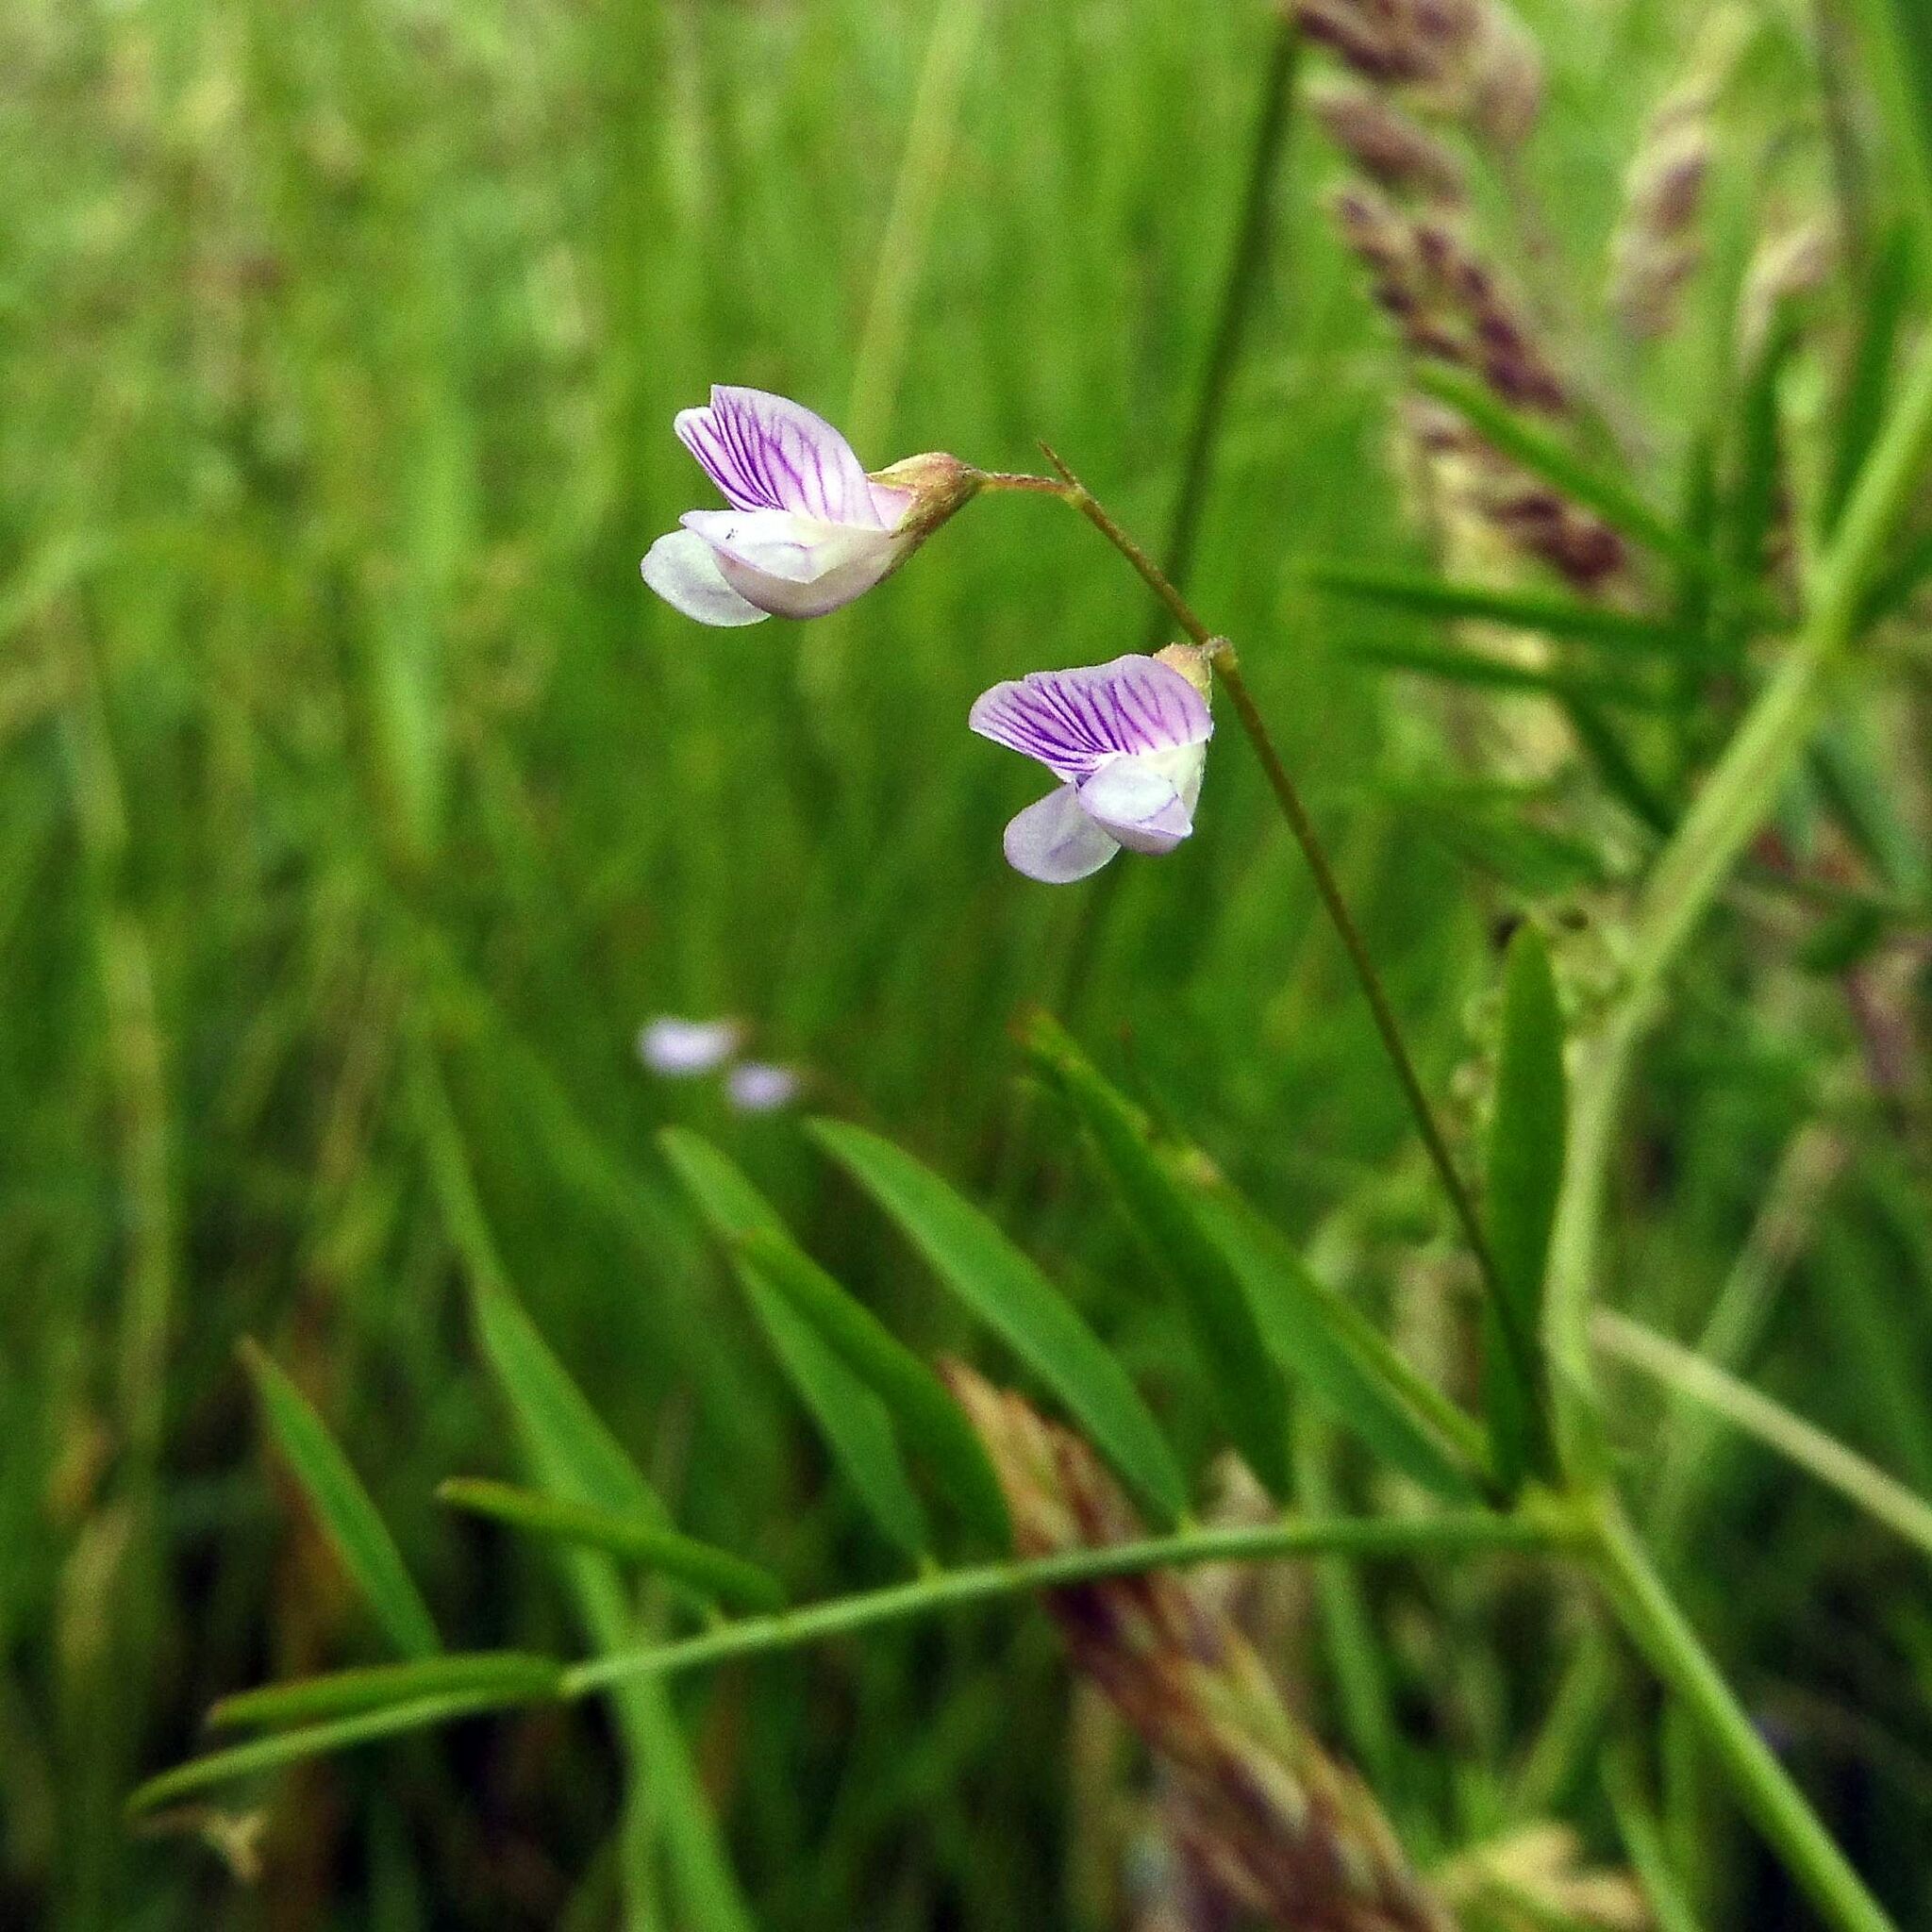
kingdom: Plantae
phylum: Tracheophyta
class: Magnoliopsida
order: Fabales
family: Fabaceae
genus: Vicia
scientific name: Vicia tetrasperma
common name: Smooth tare
